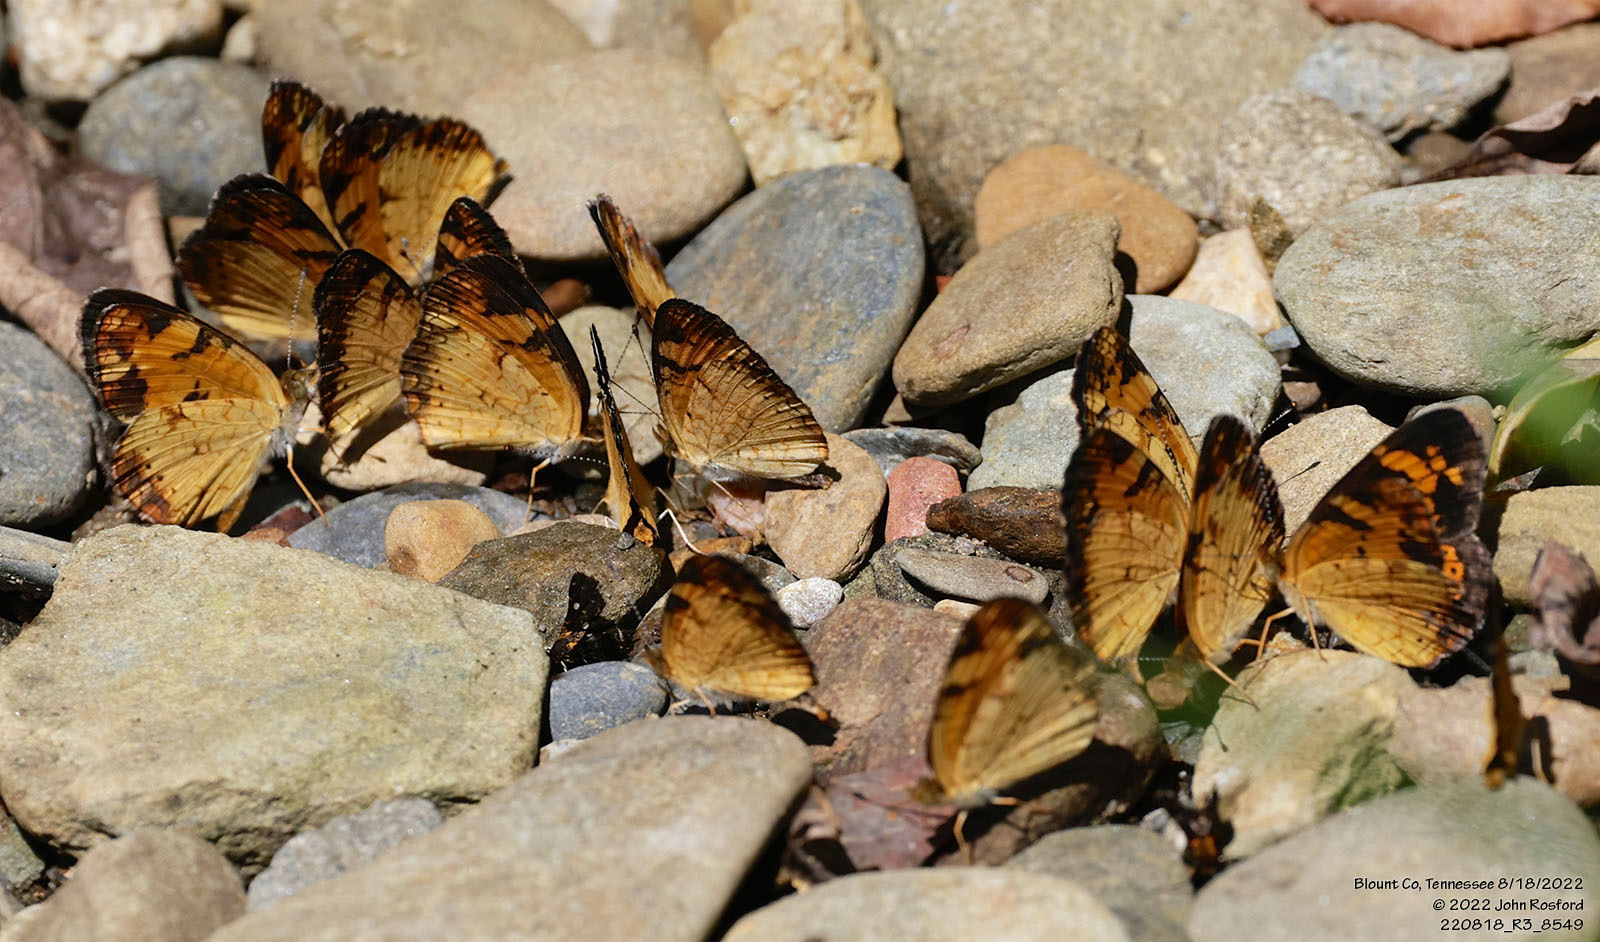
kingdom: Animalia
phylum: Arthropoda
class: Insecta
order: Lepidoptera
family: Nymphalidae
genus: Phyciodes
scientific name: Phyciodes tharos
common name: Pearl crescent
